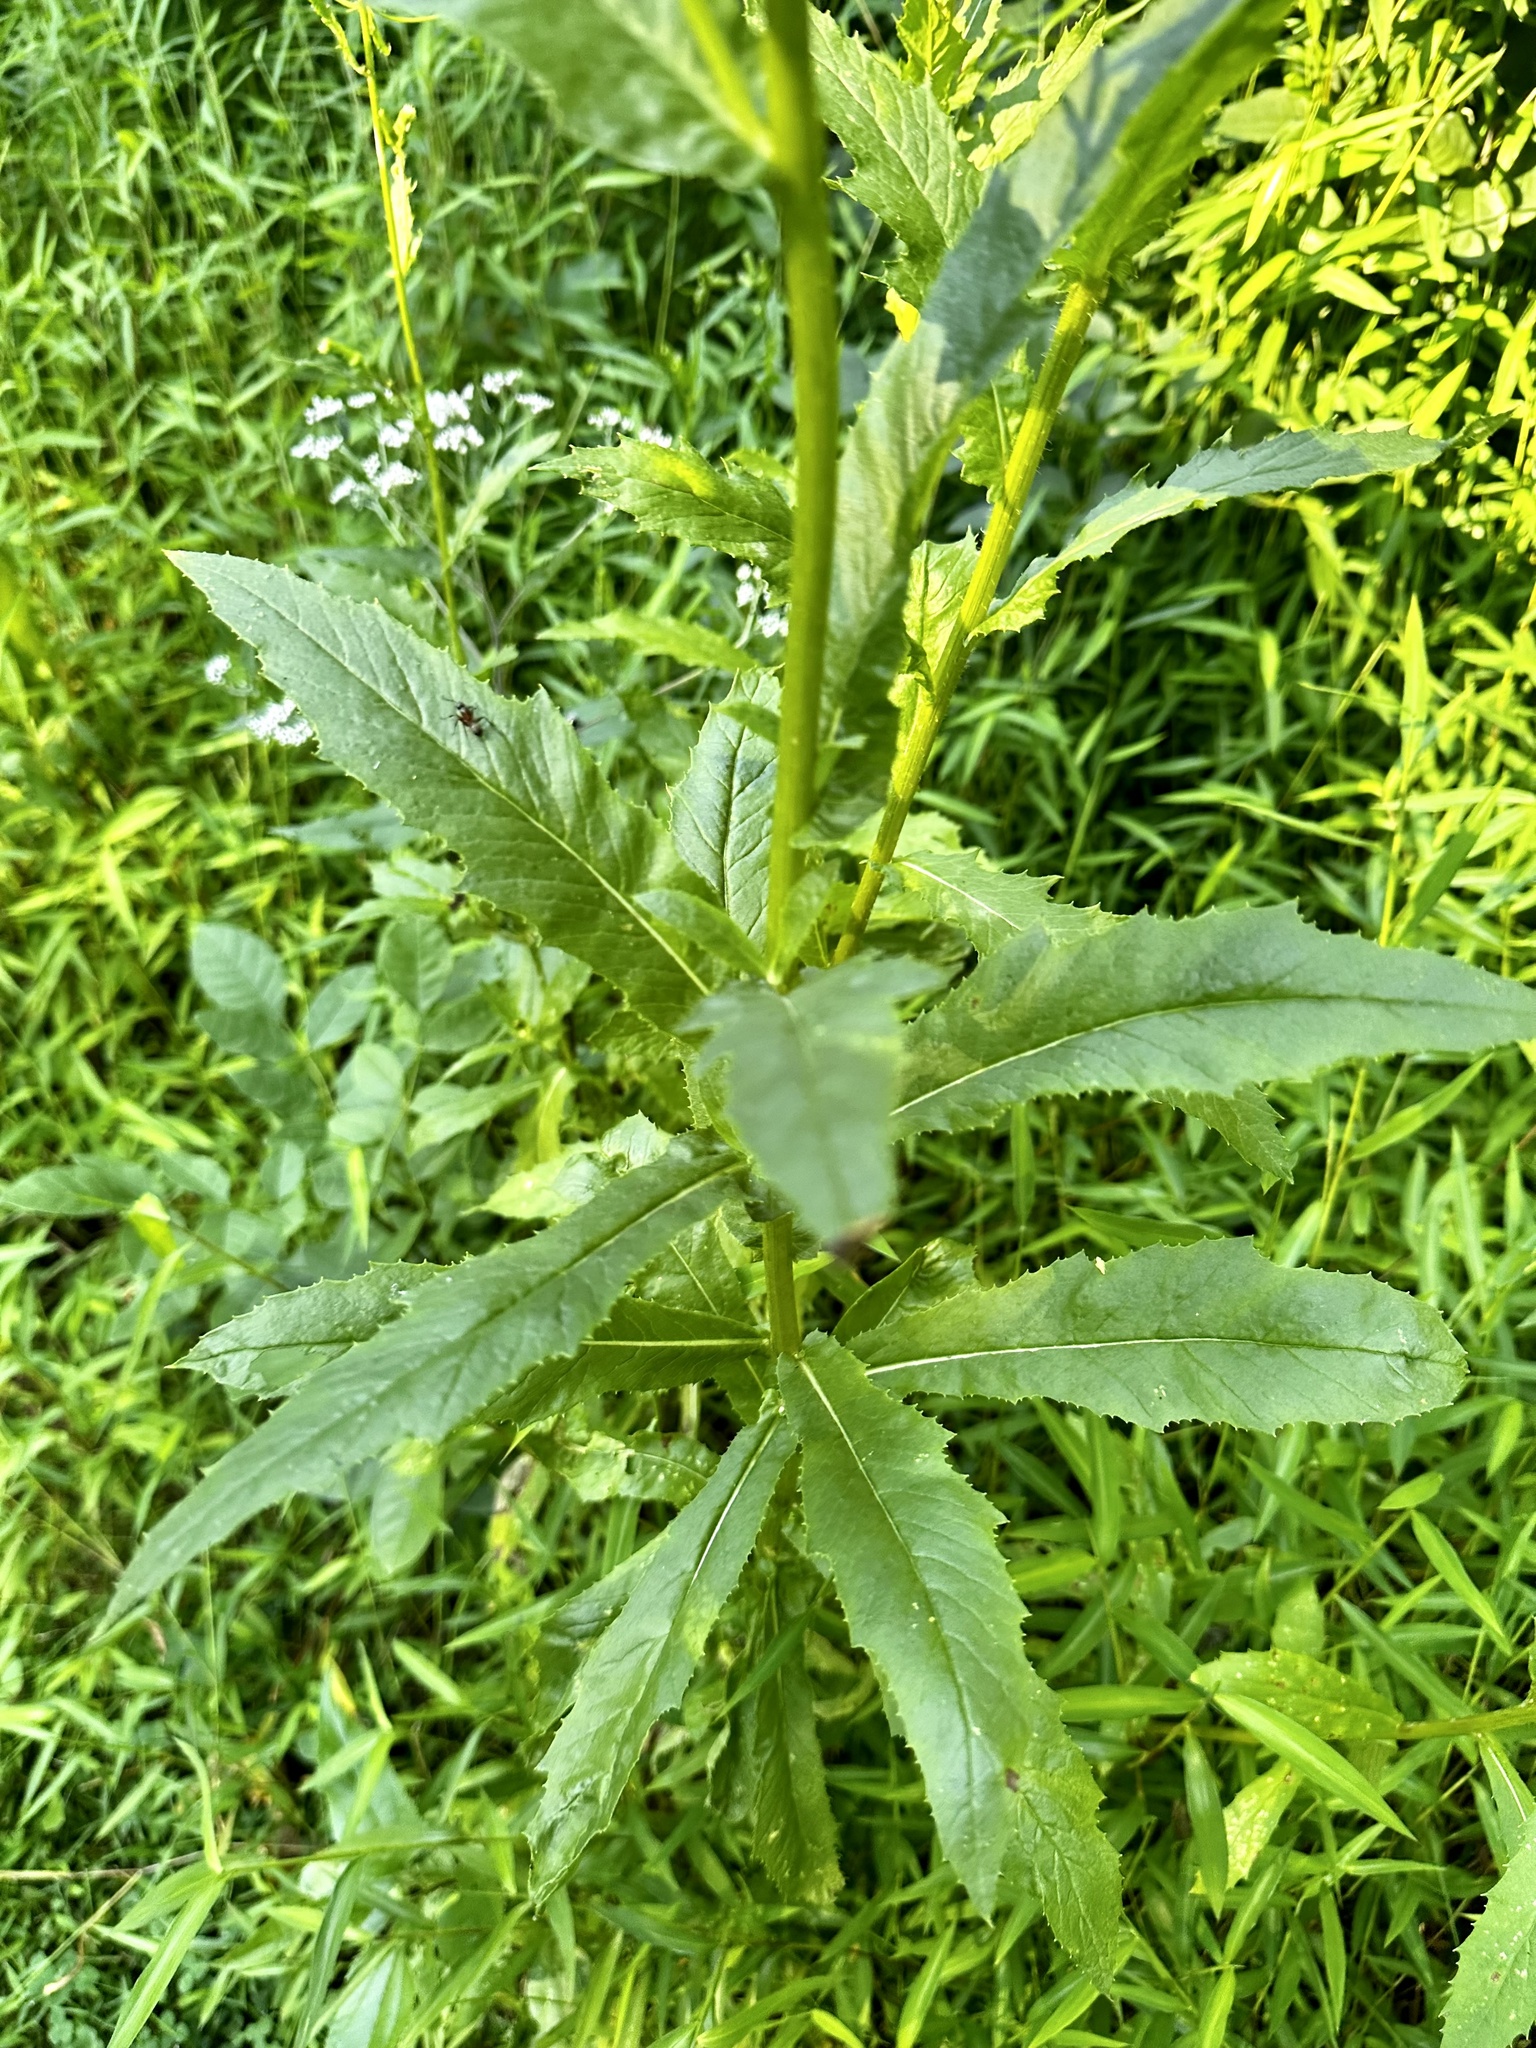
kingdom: Plantae
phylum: Tracheophyta
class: Magnoliopsida
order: Asterales
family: Asteraceae
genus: Erechtites
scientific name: Erechtites hieraciifolius
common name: American burnweed
